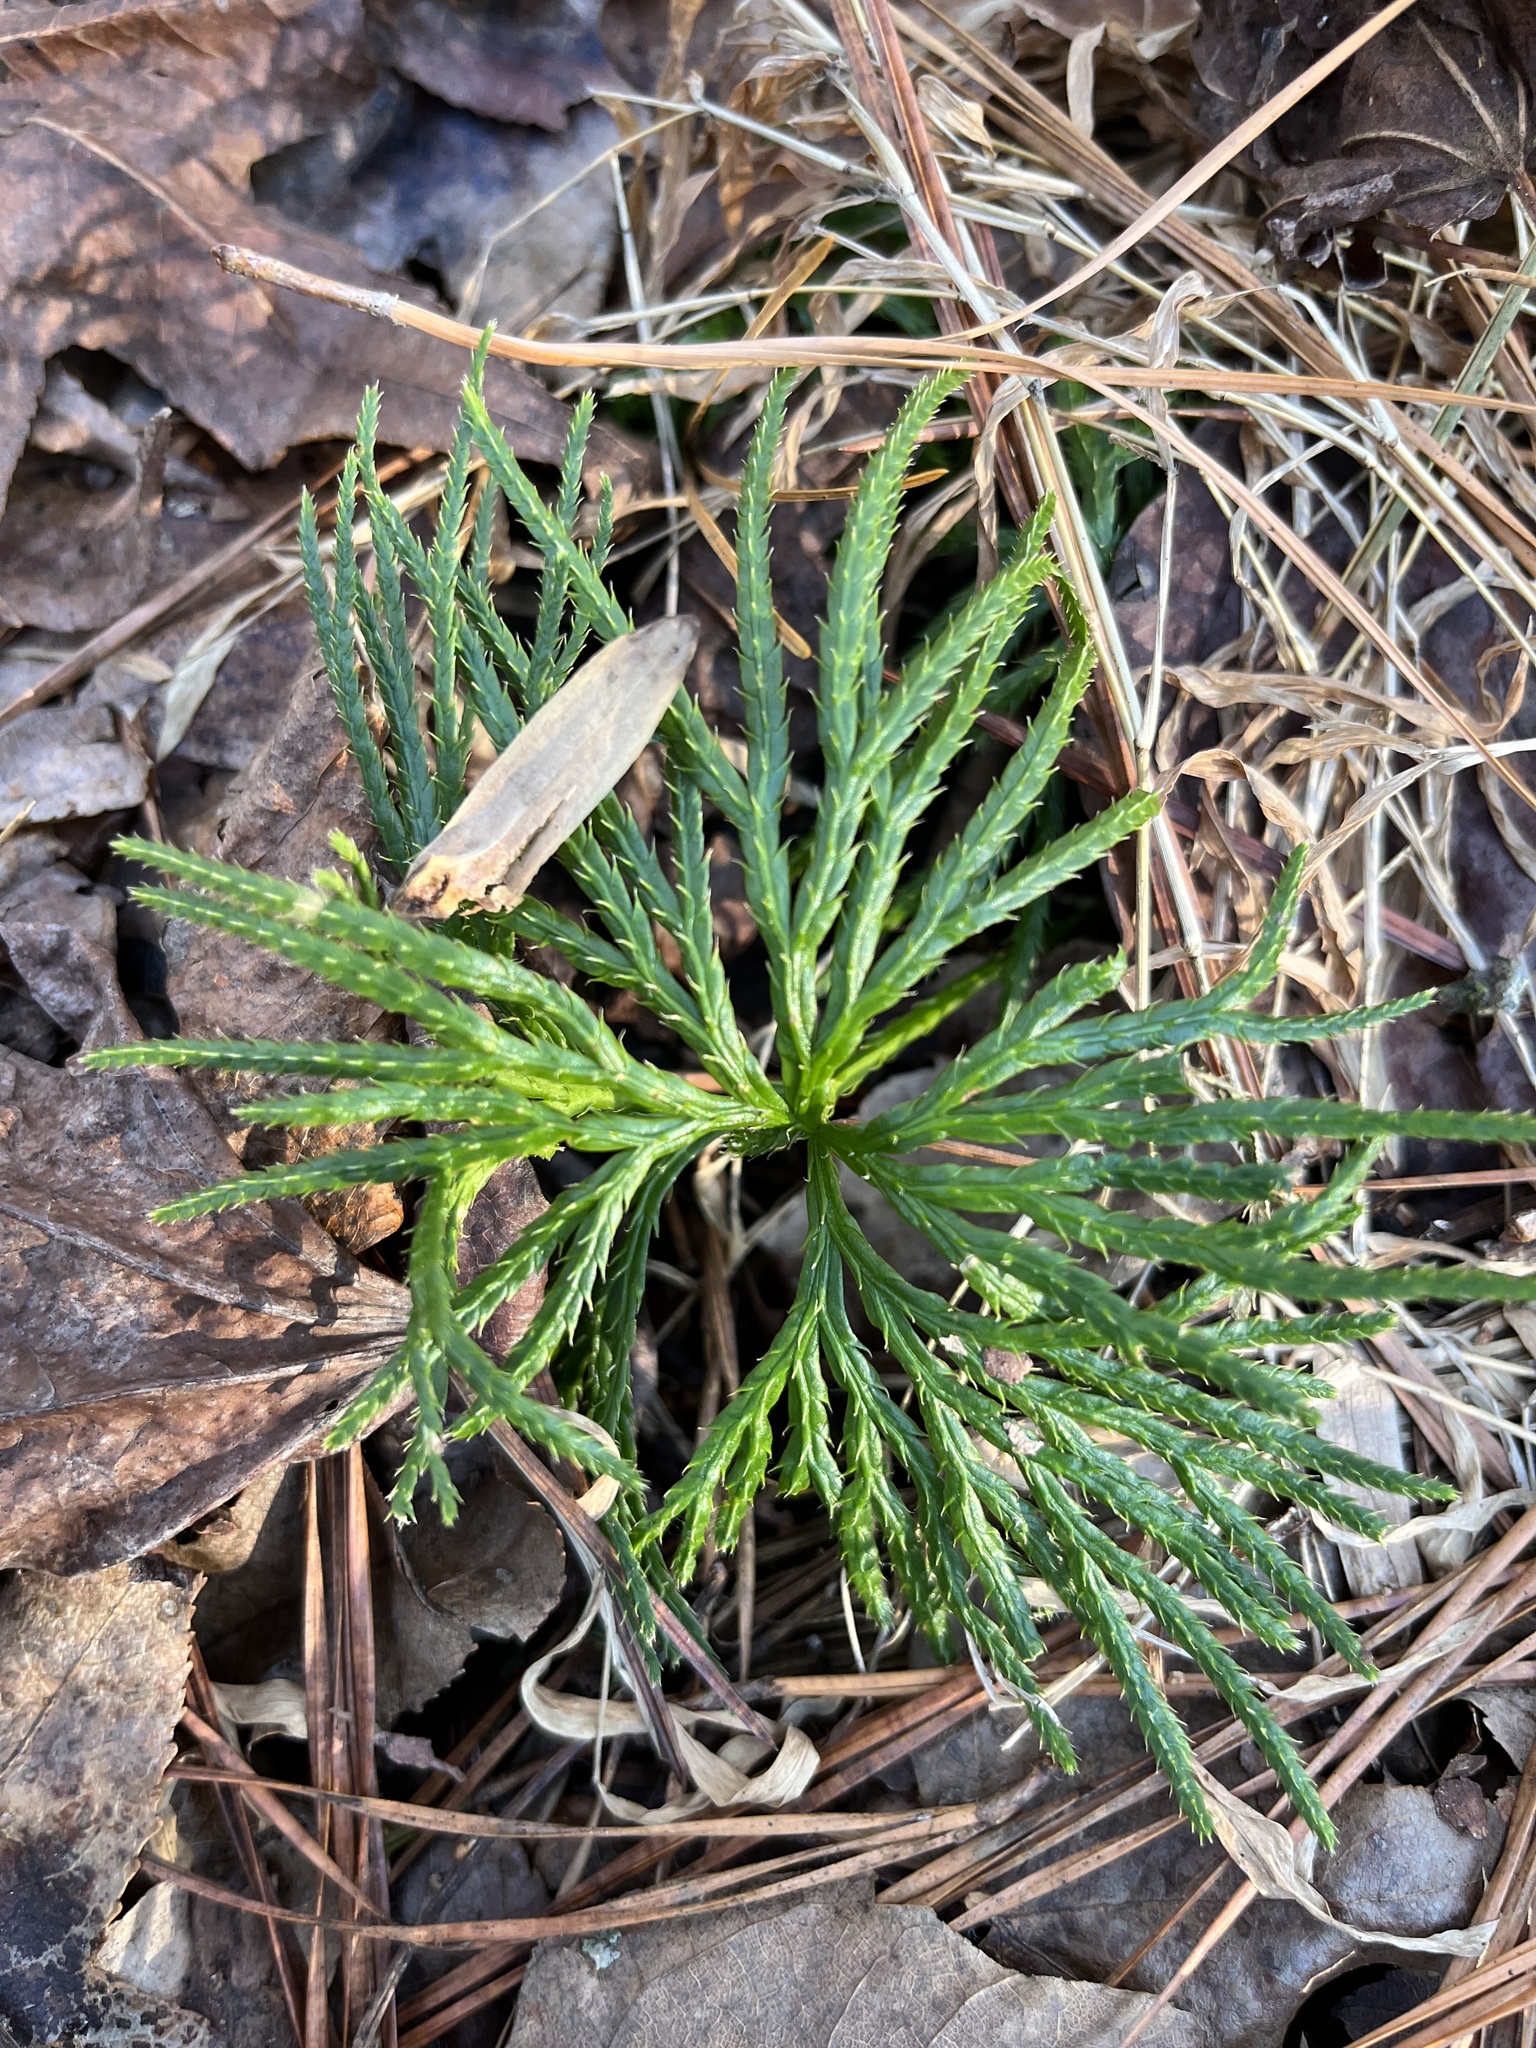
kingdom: Plantae
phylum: Tracheophyta
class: Lycopodiopsida
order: Lycopodiales
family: Lycopodiaceae
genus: Diphasiastrum
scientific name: Diphasiastrum digitatum
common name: Southern running-pine
